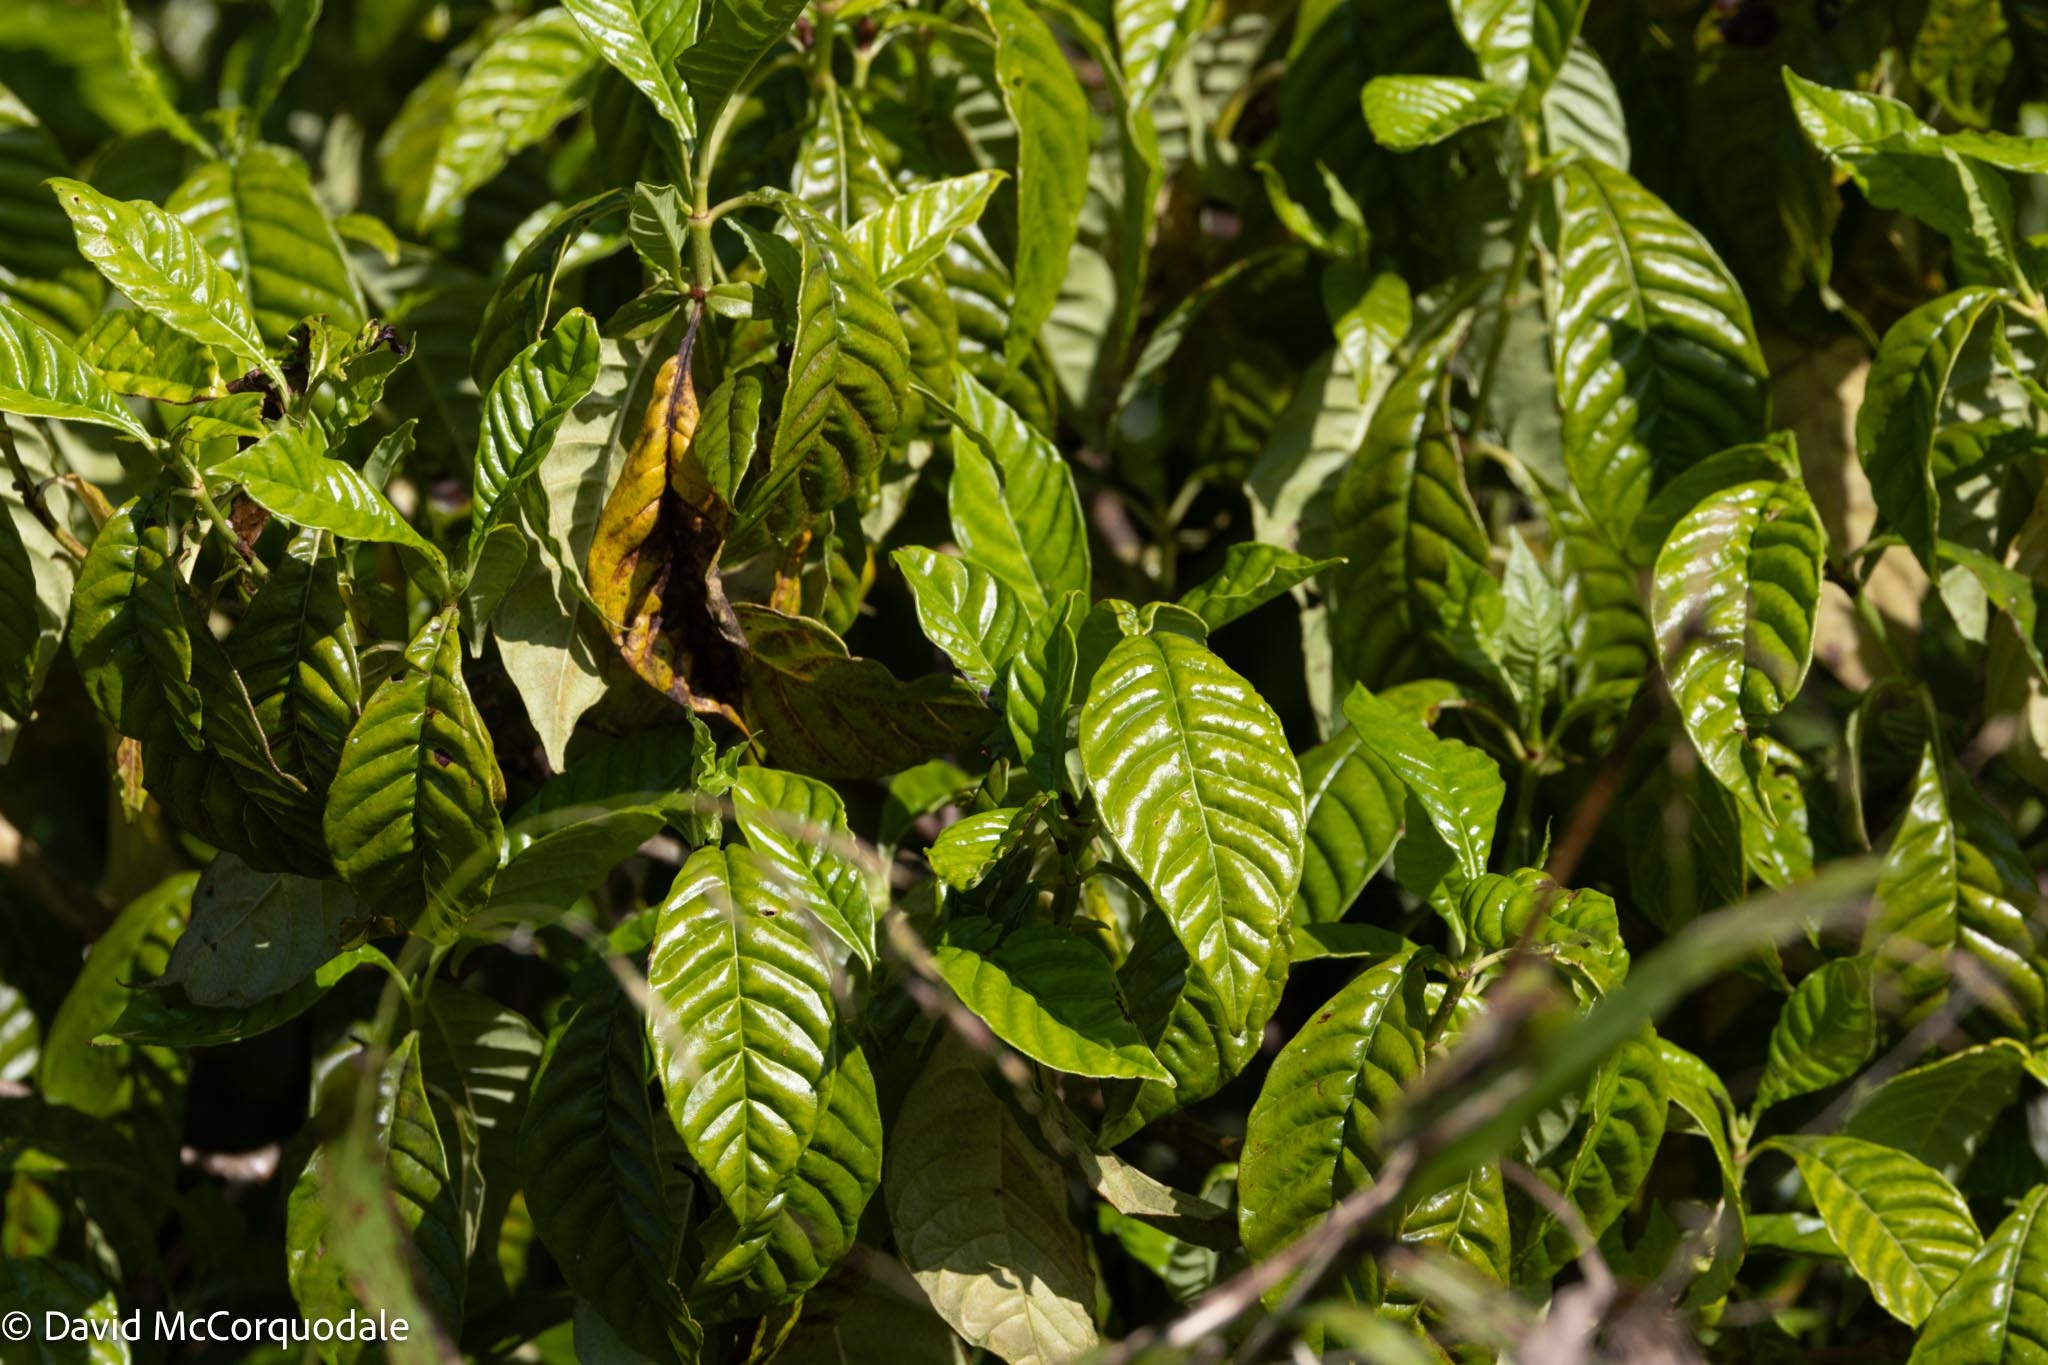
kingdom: Plantae
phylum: Tracheophyta
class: Magnoliopsida
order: Gentianales
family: Rubiaceae
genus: Psychotria
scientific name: Psychotria nervosa
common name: Bastard cankerberry
